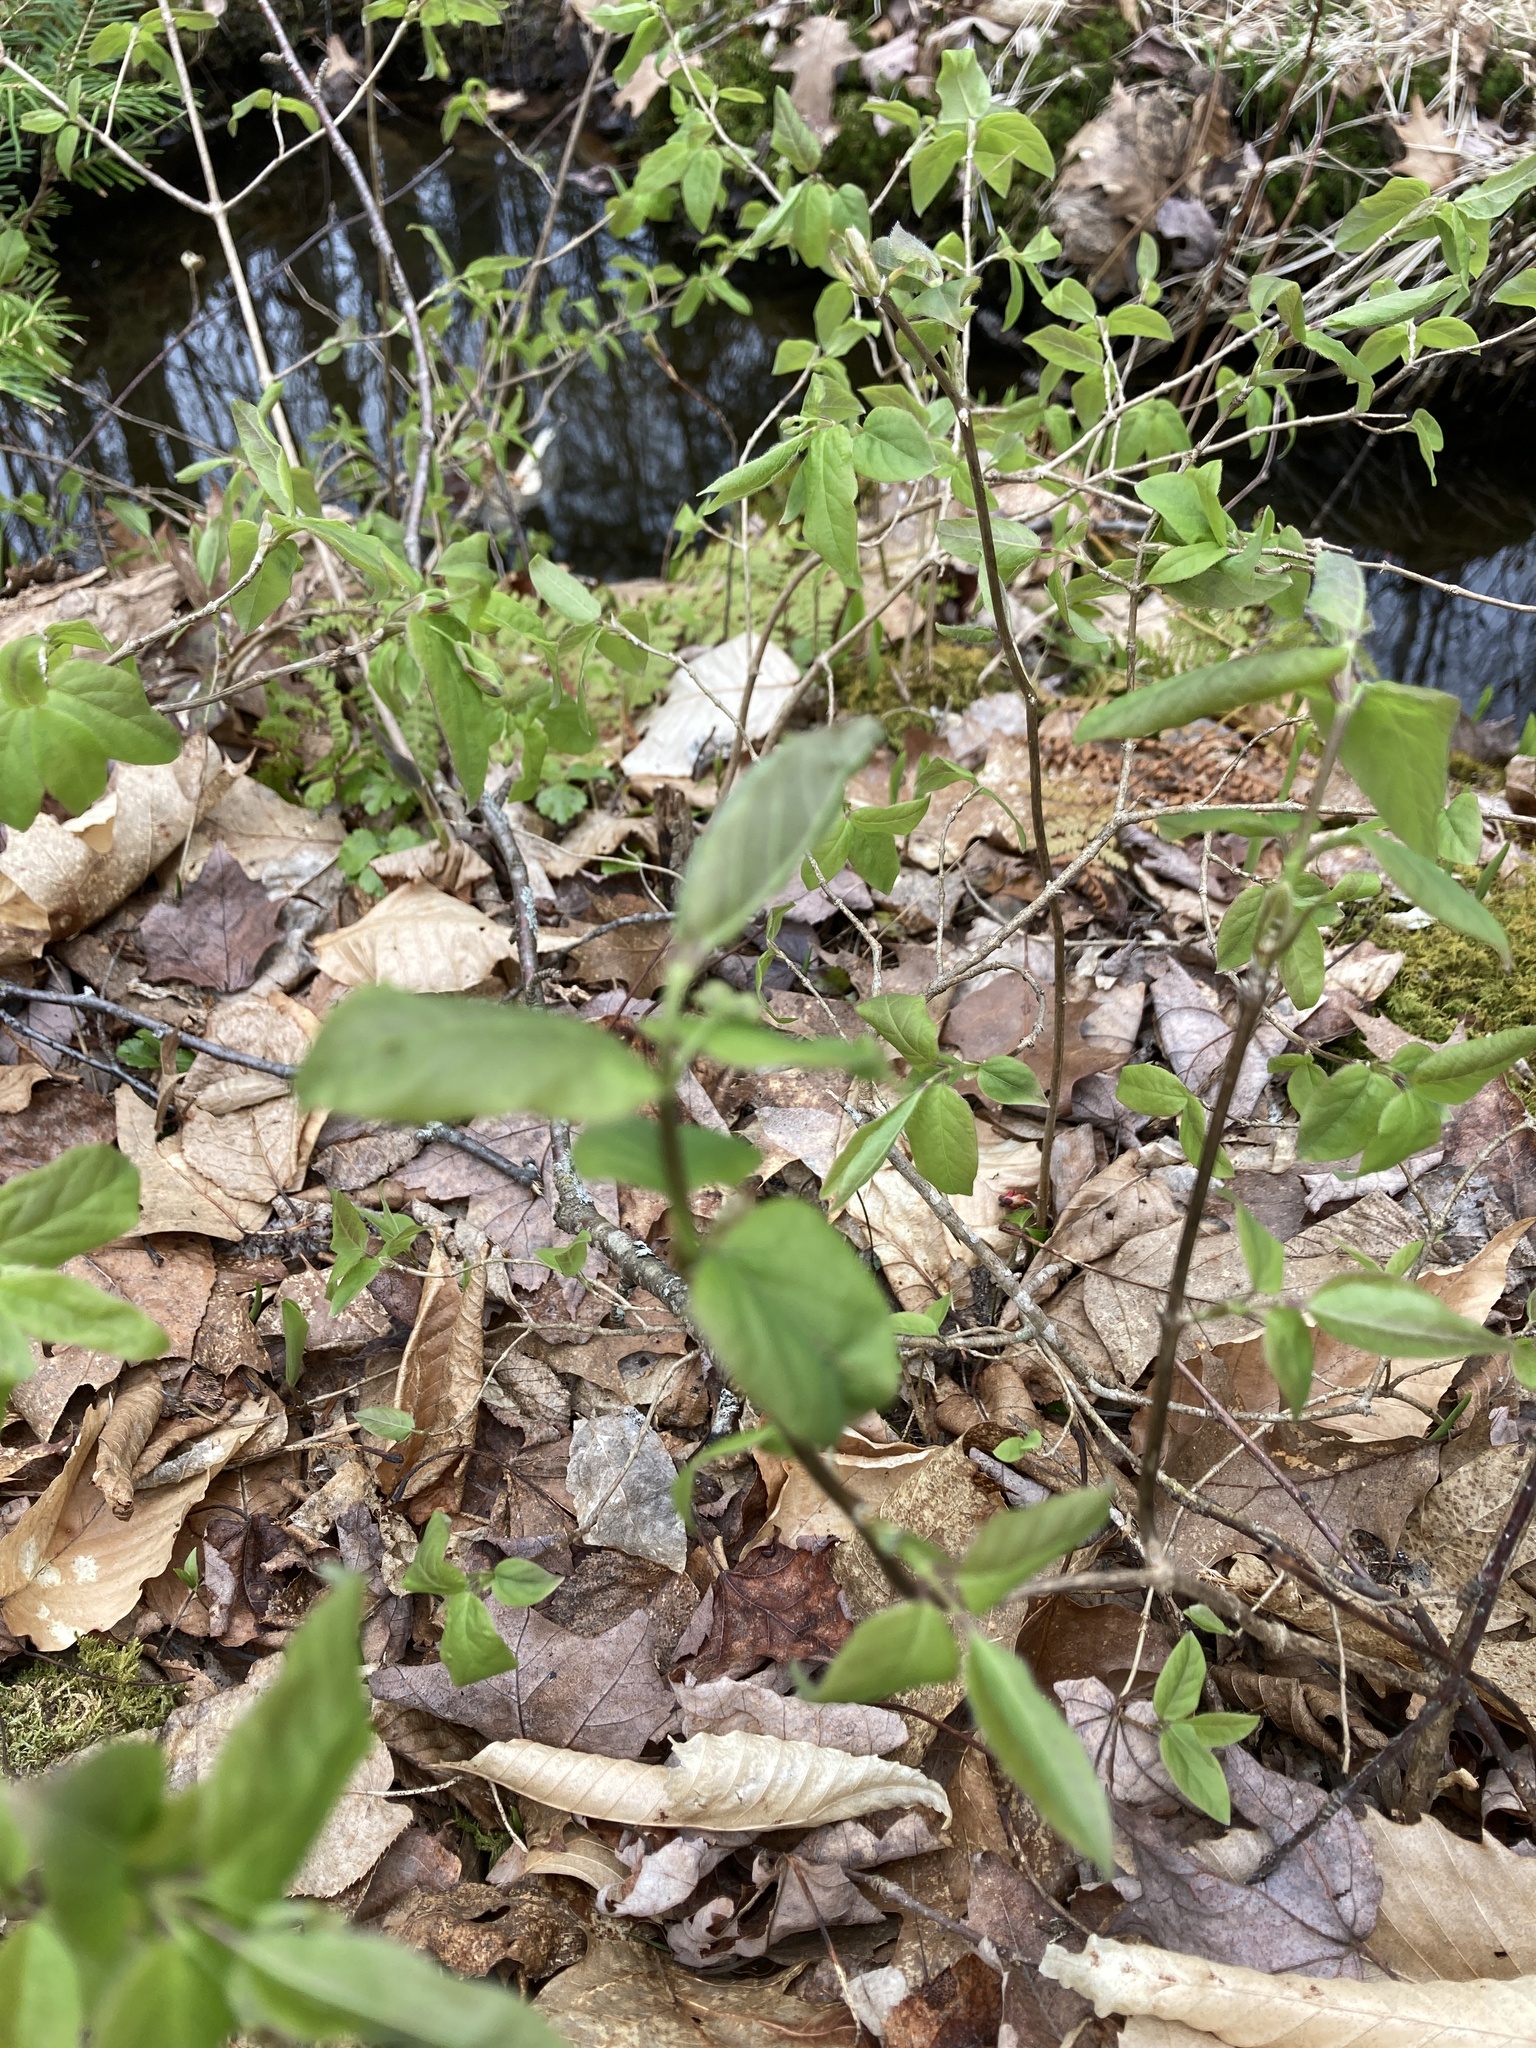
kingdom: Plantae
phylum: Tracheophyta
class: Magnoliopsida
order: Dipsacales
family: Caprifoliaceae
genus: Lonicera
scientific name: Lonicera canadensis
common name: American fly-honeysuckle
